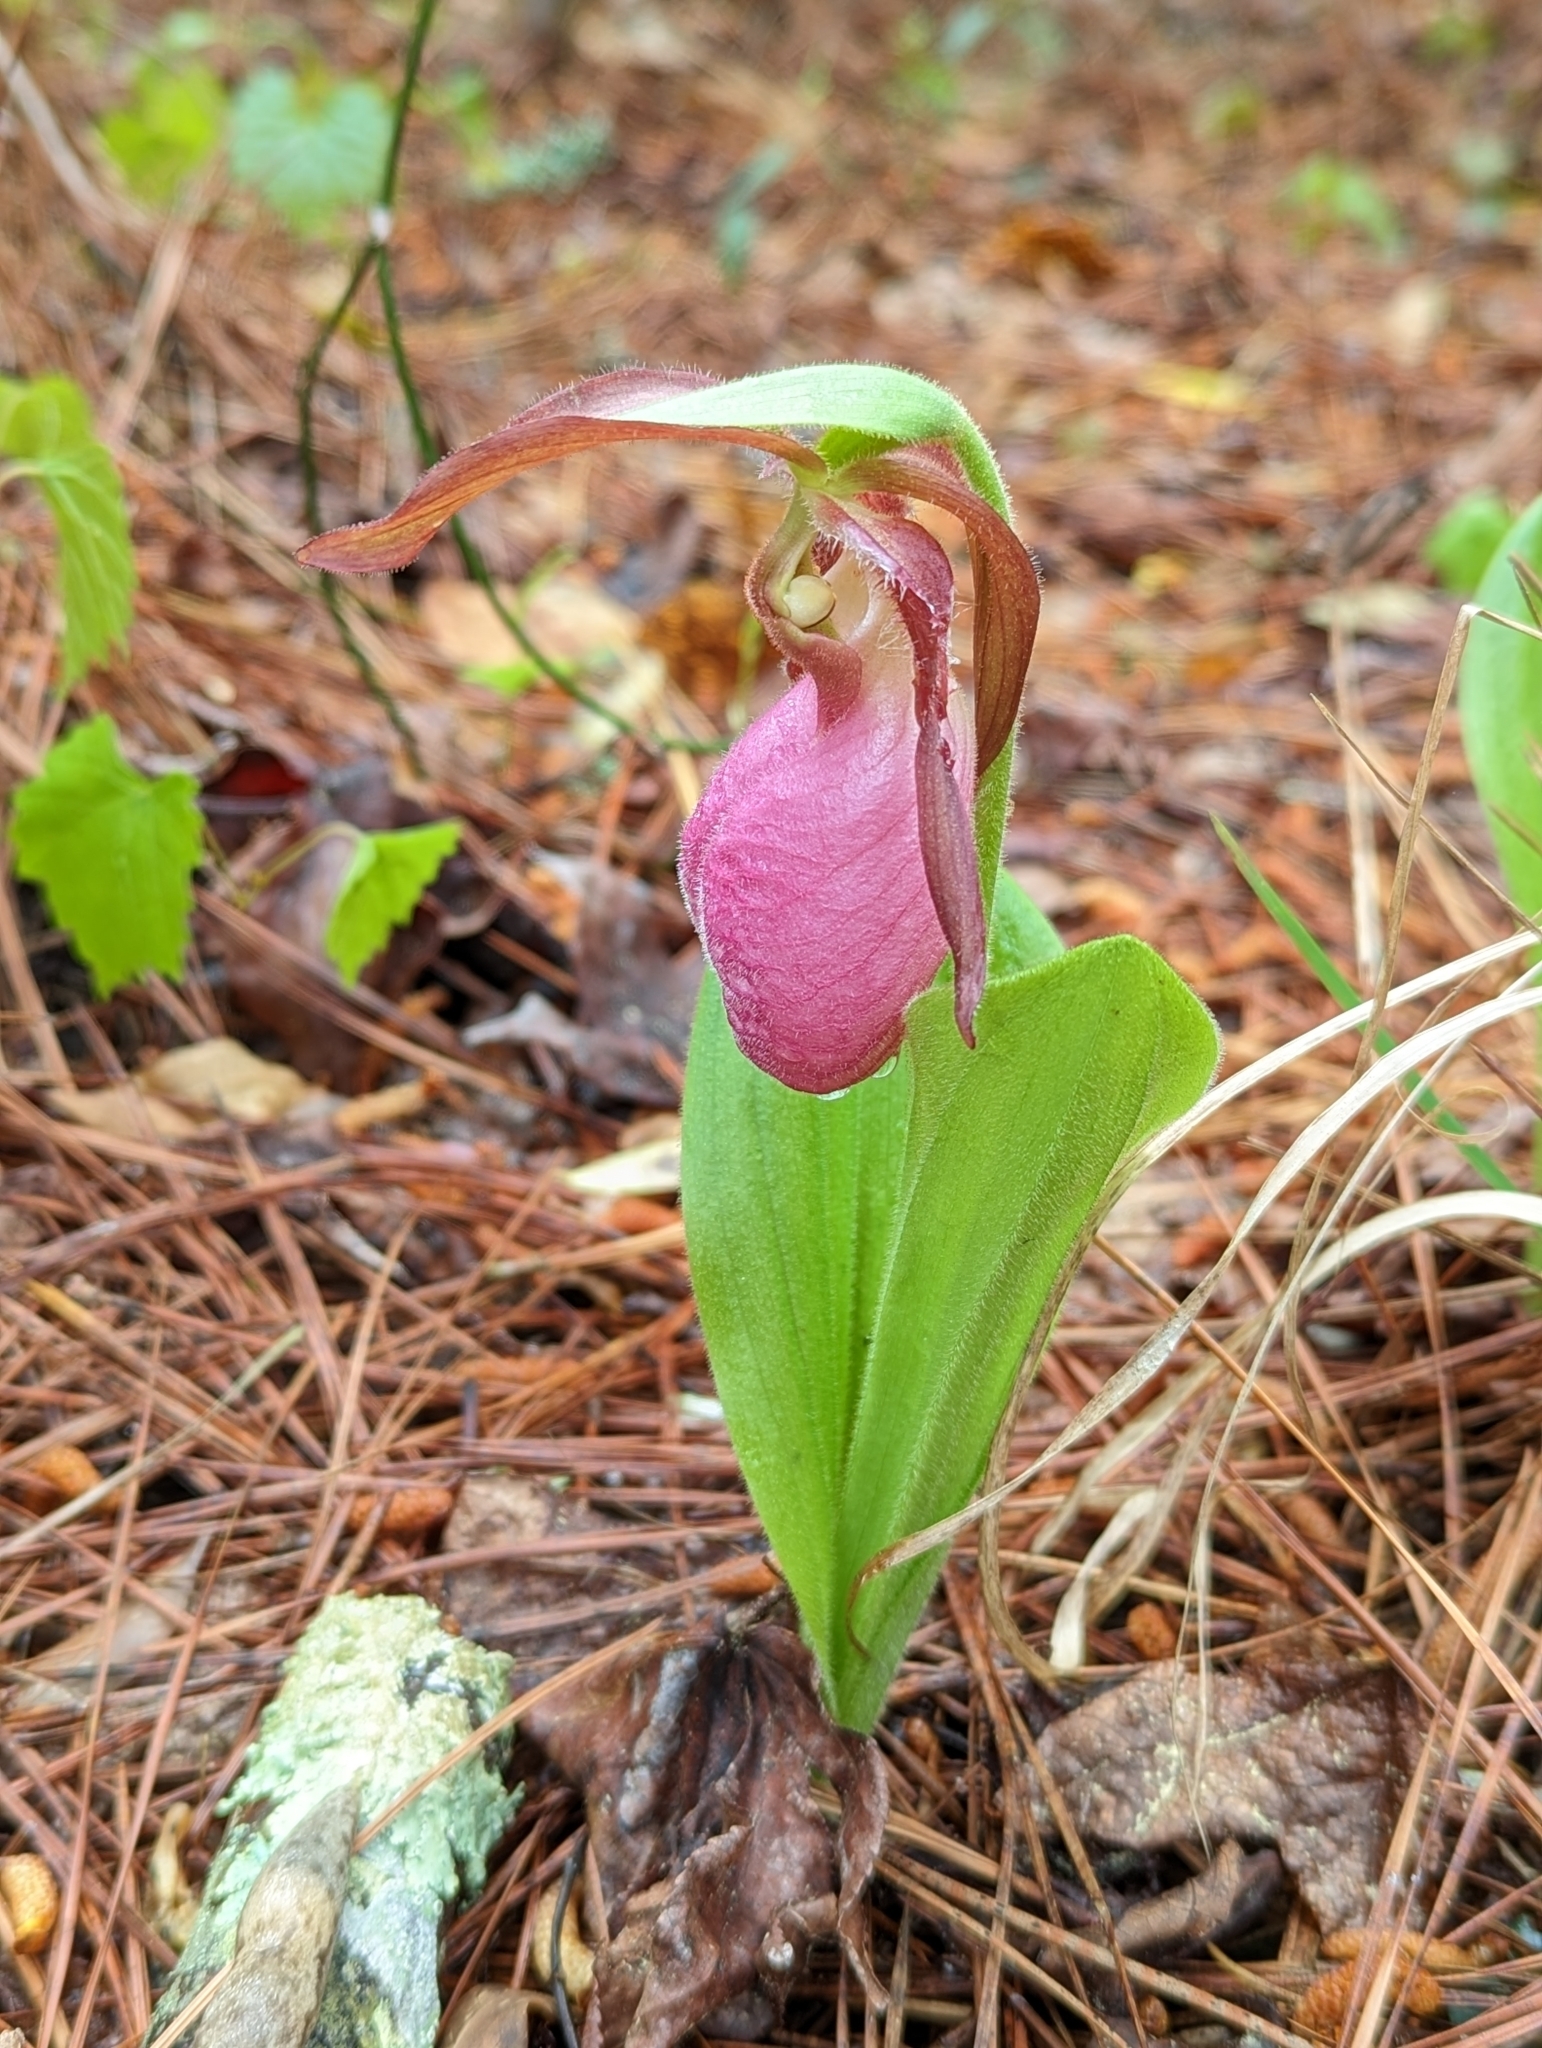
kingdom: Plantae
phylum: Tracheophyta
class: Liliopsida
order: Asparagales
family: Orchidaceae
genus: Cypripedium
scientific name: Cypripedium acaule
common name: Pink lady's-slipper
